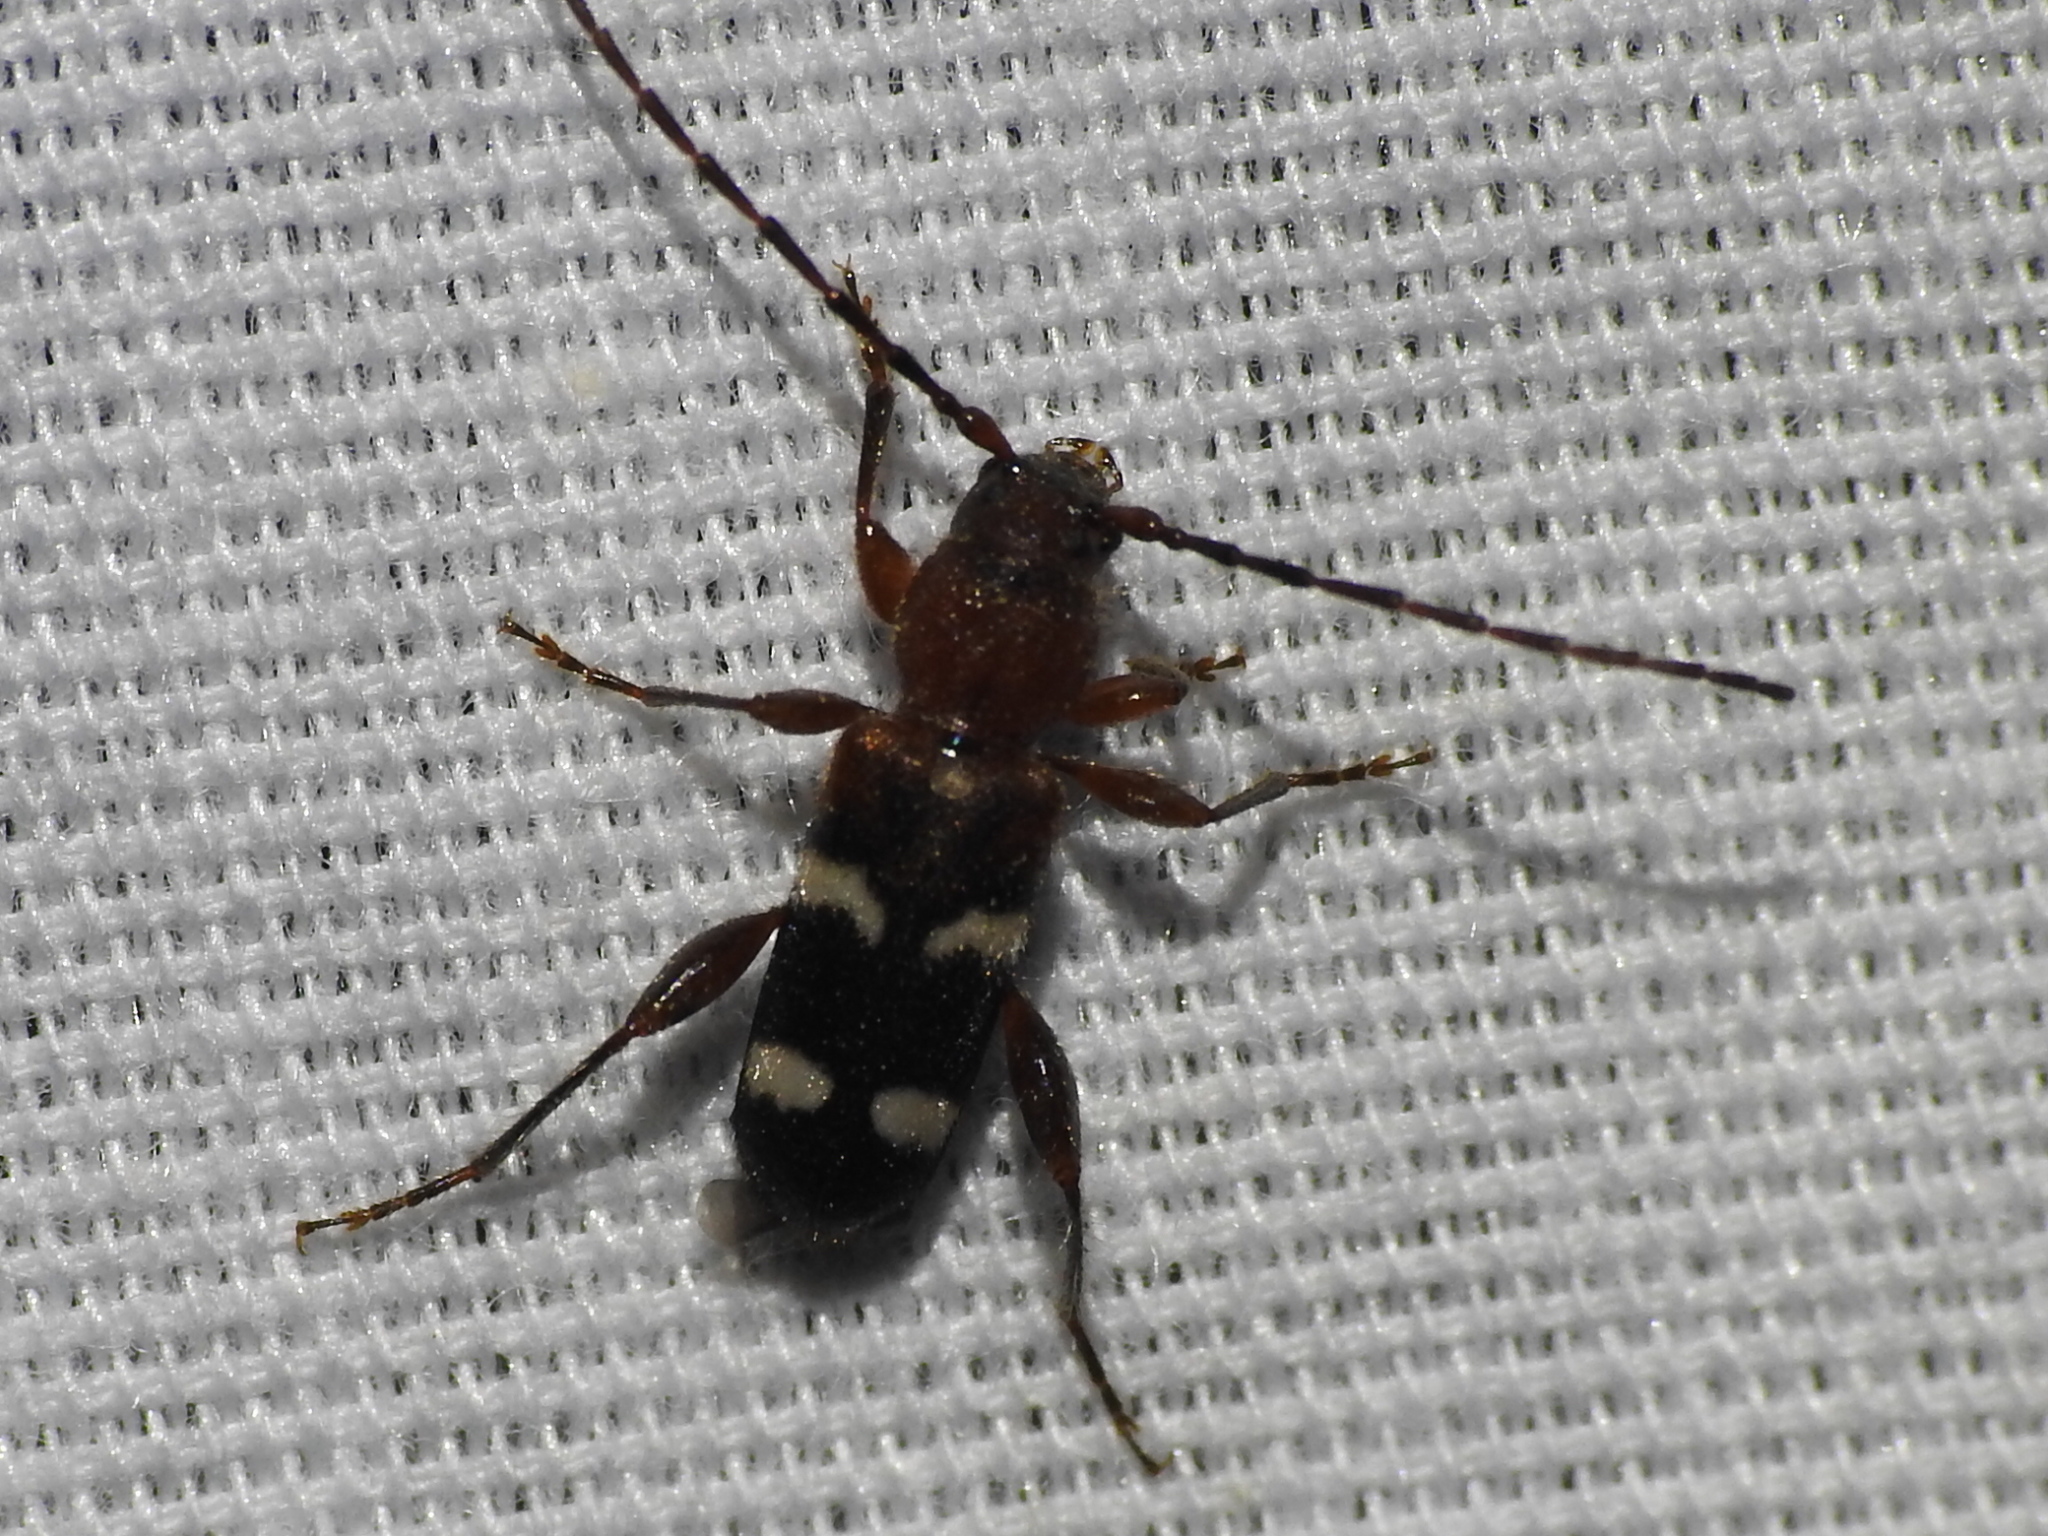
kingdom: Animalia
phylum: Arthropoda
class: Insecta
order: Coleoptera
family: Cerambycidae
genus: Phymatodes
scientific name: Phymatodes varius
